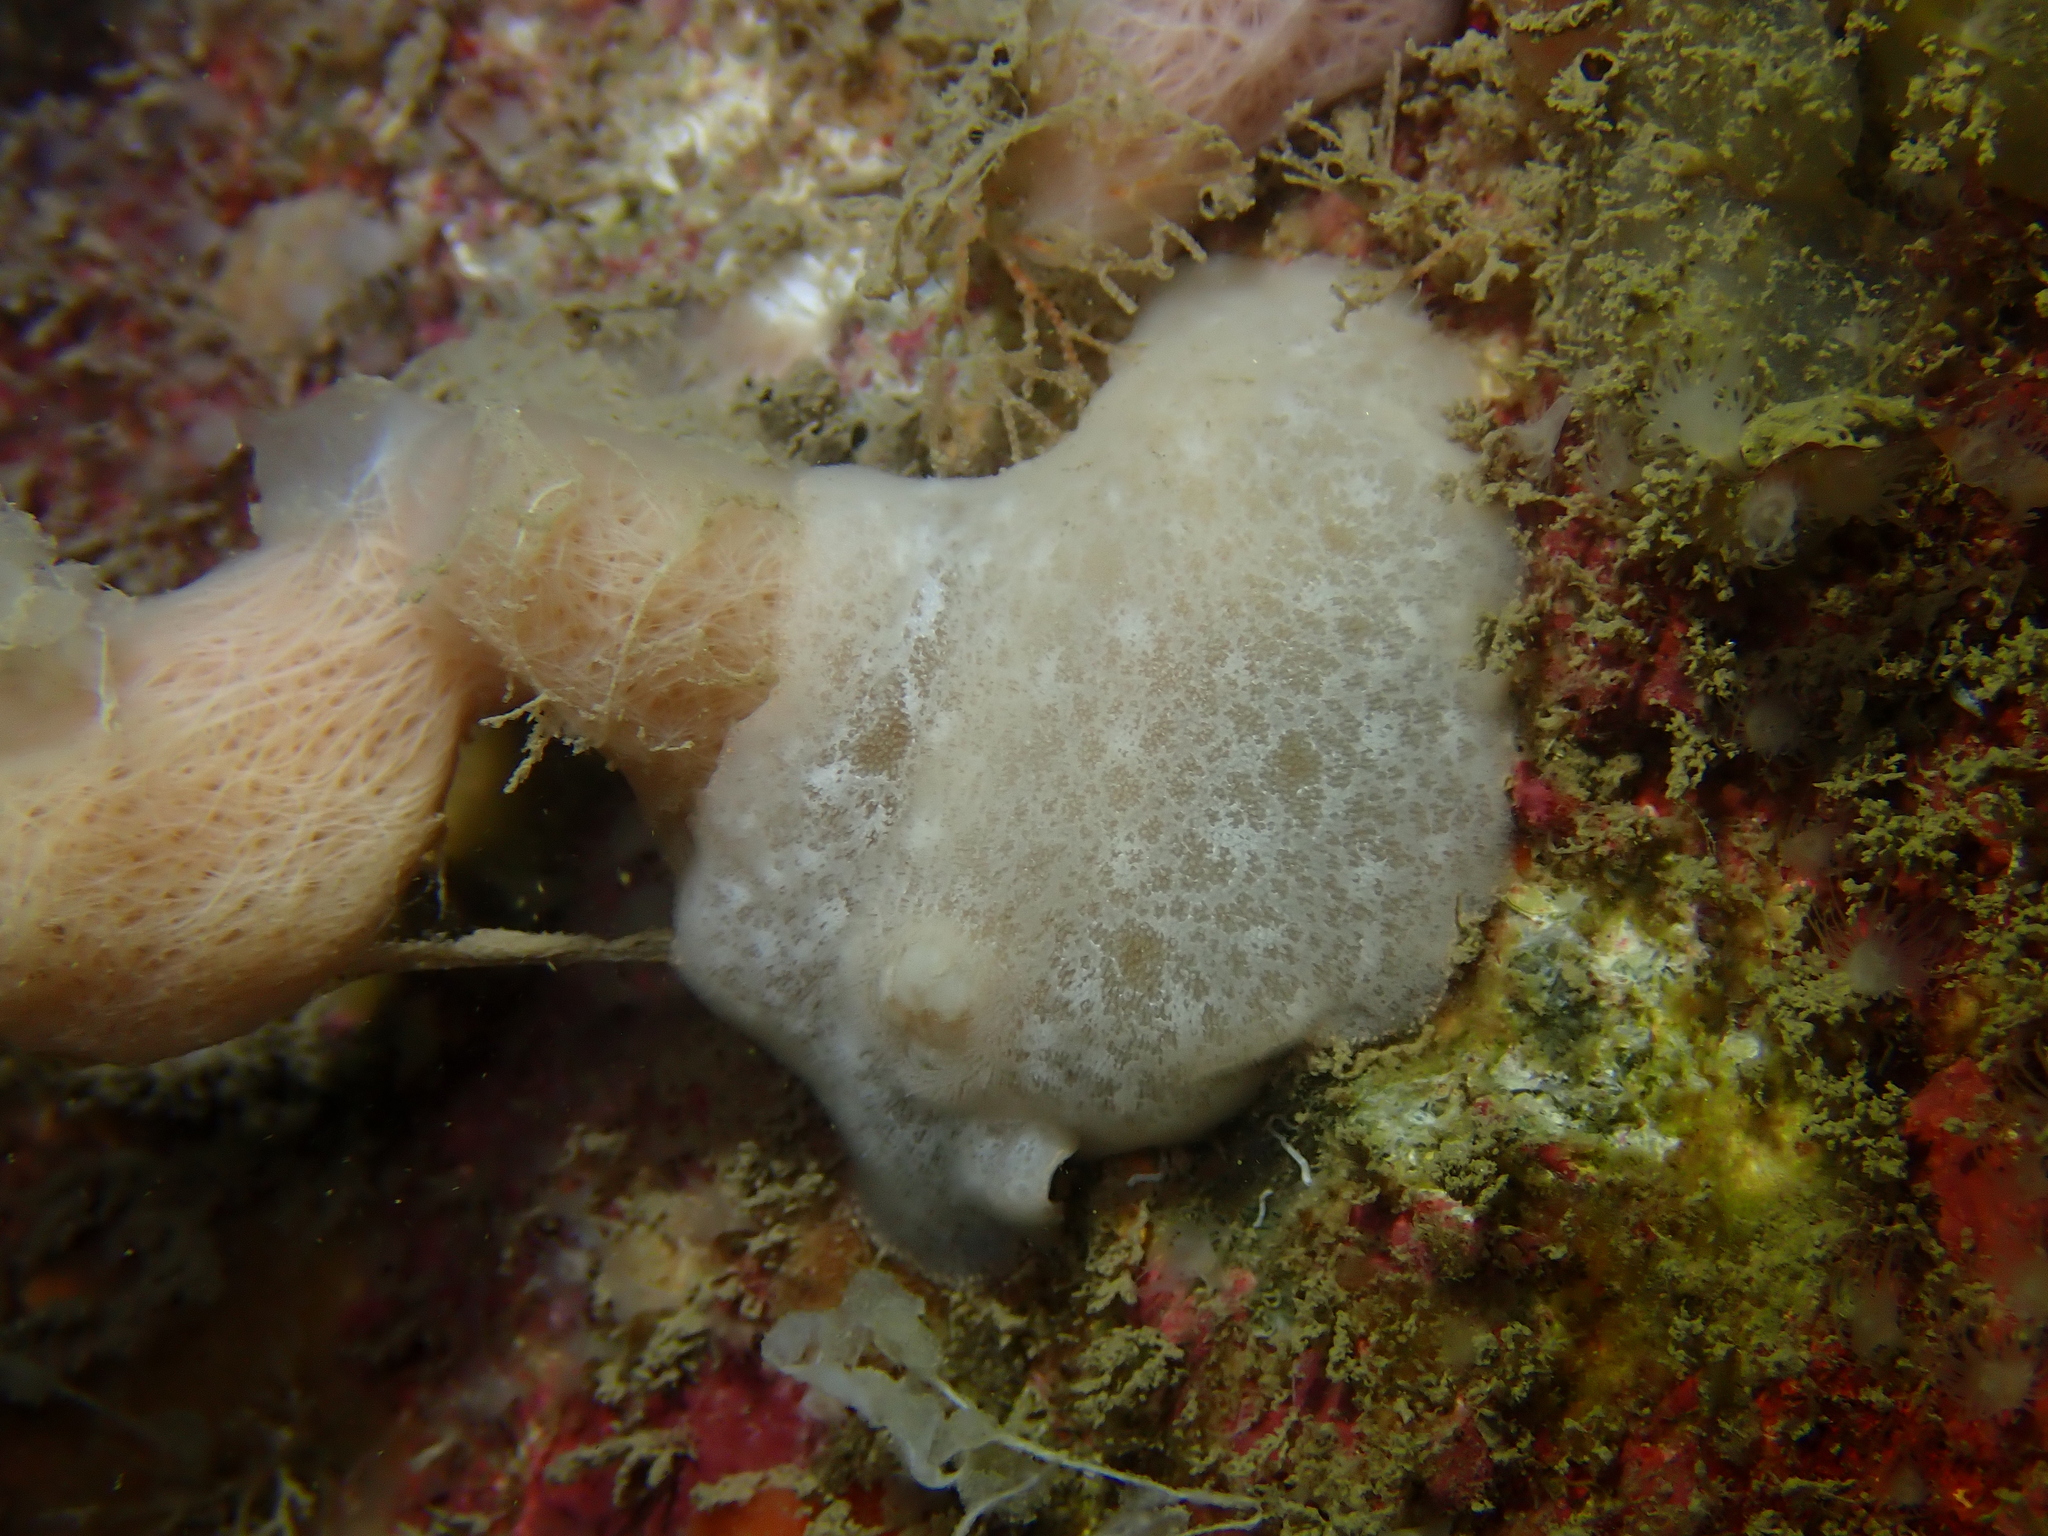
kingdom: Animalia
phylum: Mollusca
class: Gastropoda
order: Nudibranchia
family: Discodorididae
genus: Jorunna
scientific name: Jorunna tomentosa
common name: Grey sea slug
